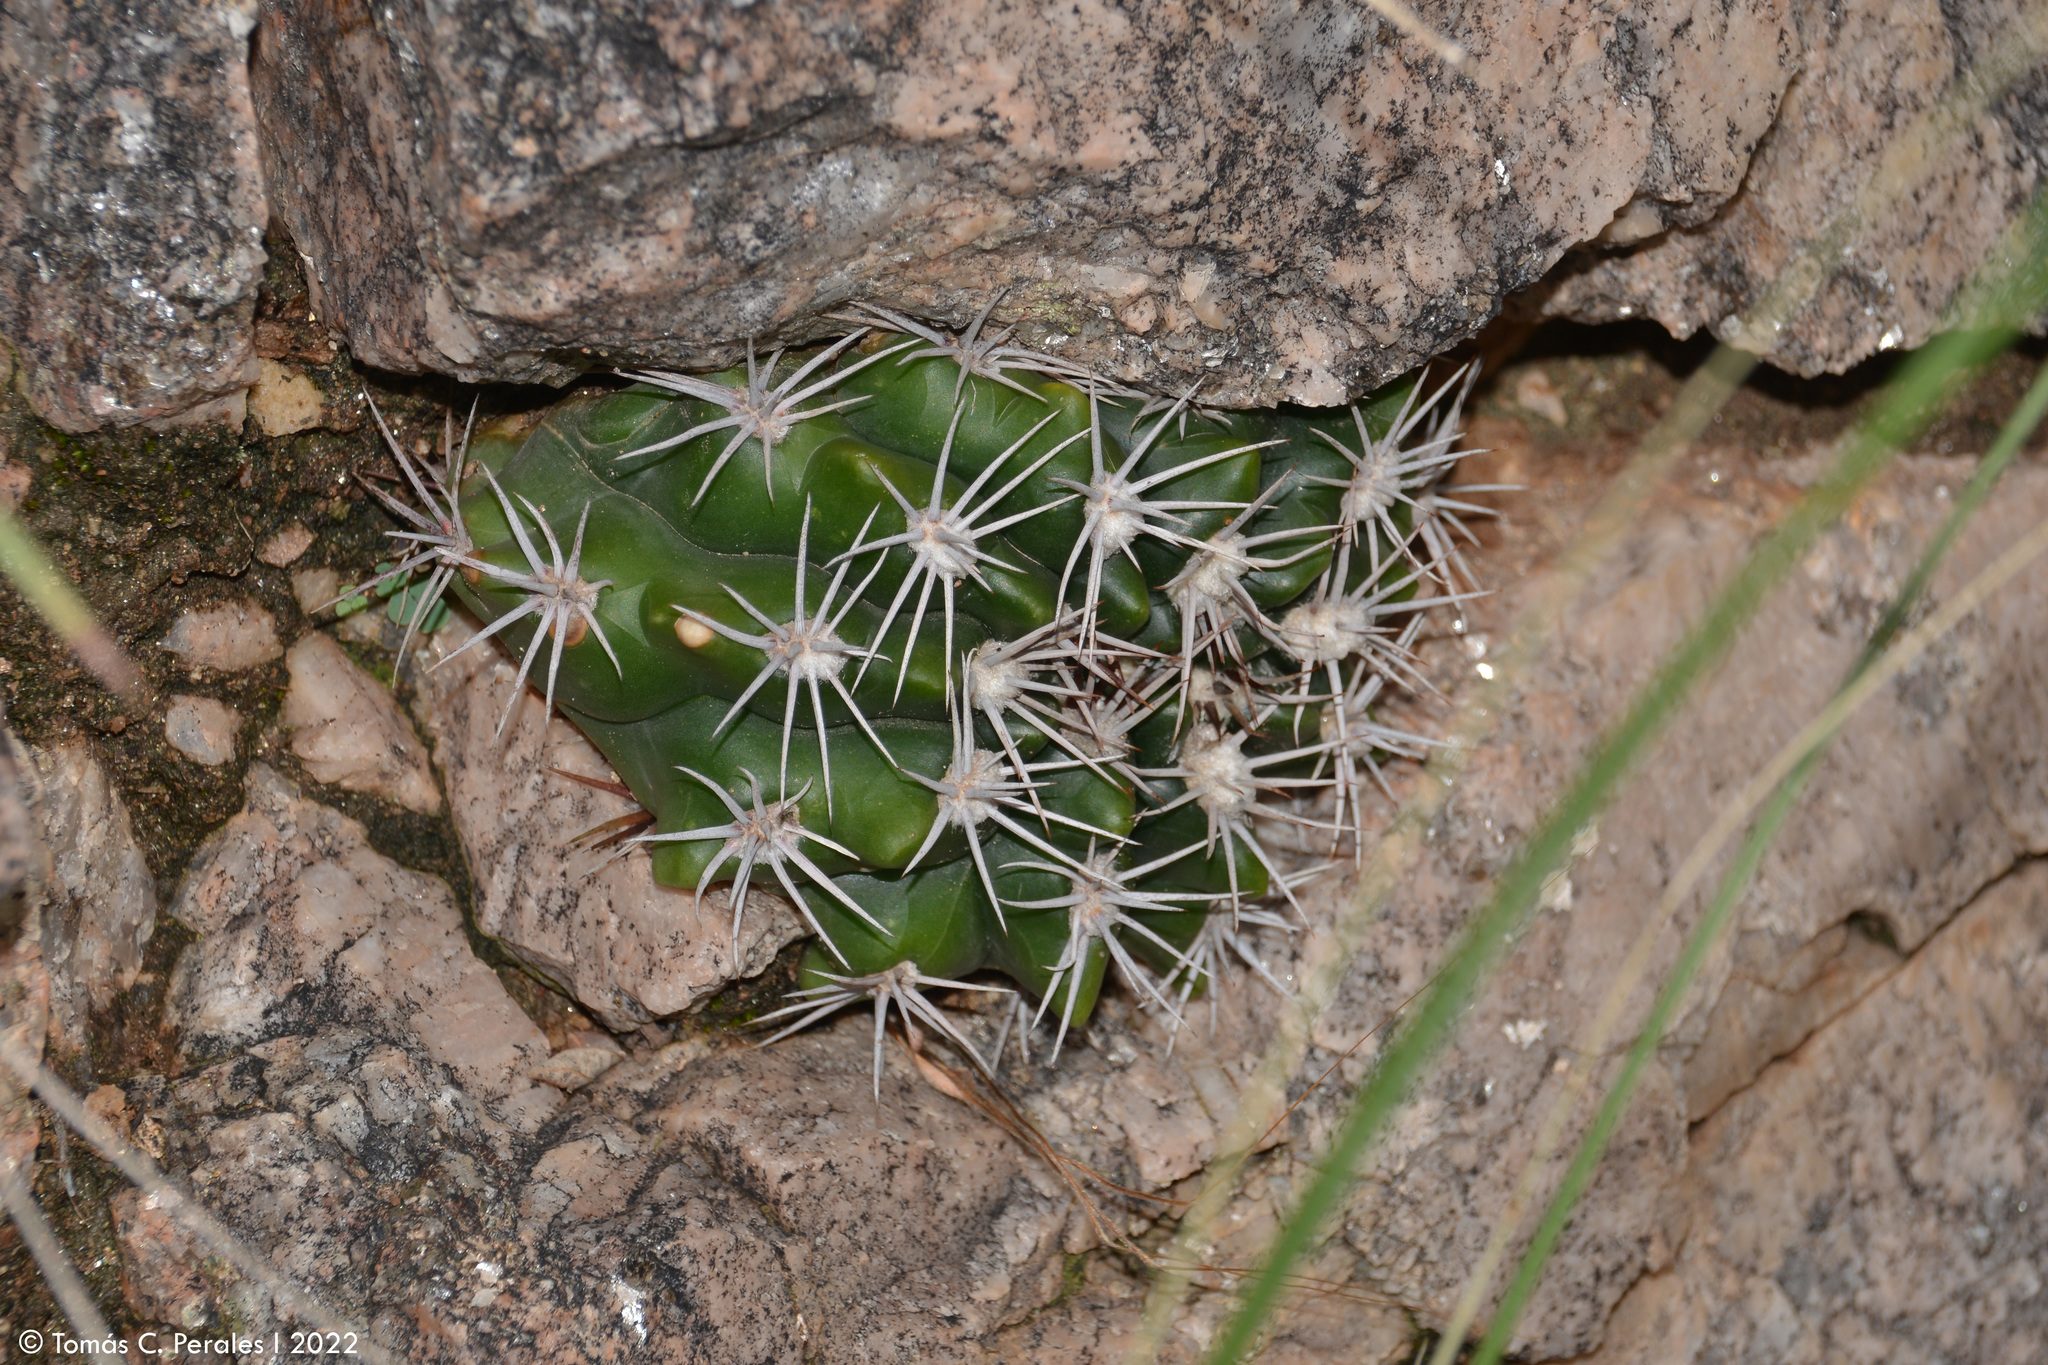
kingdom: Plantae
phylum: Tracheophyta
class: Magnoliopsida
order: Caryophyllales
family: Cactaceae
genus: Gymnocalycium
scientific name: Gymnocalycium mostii
